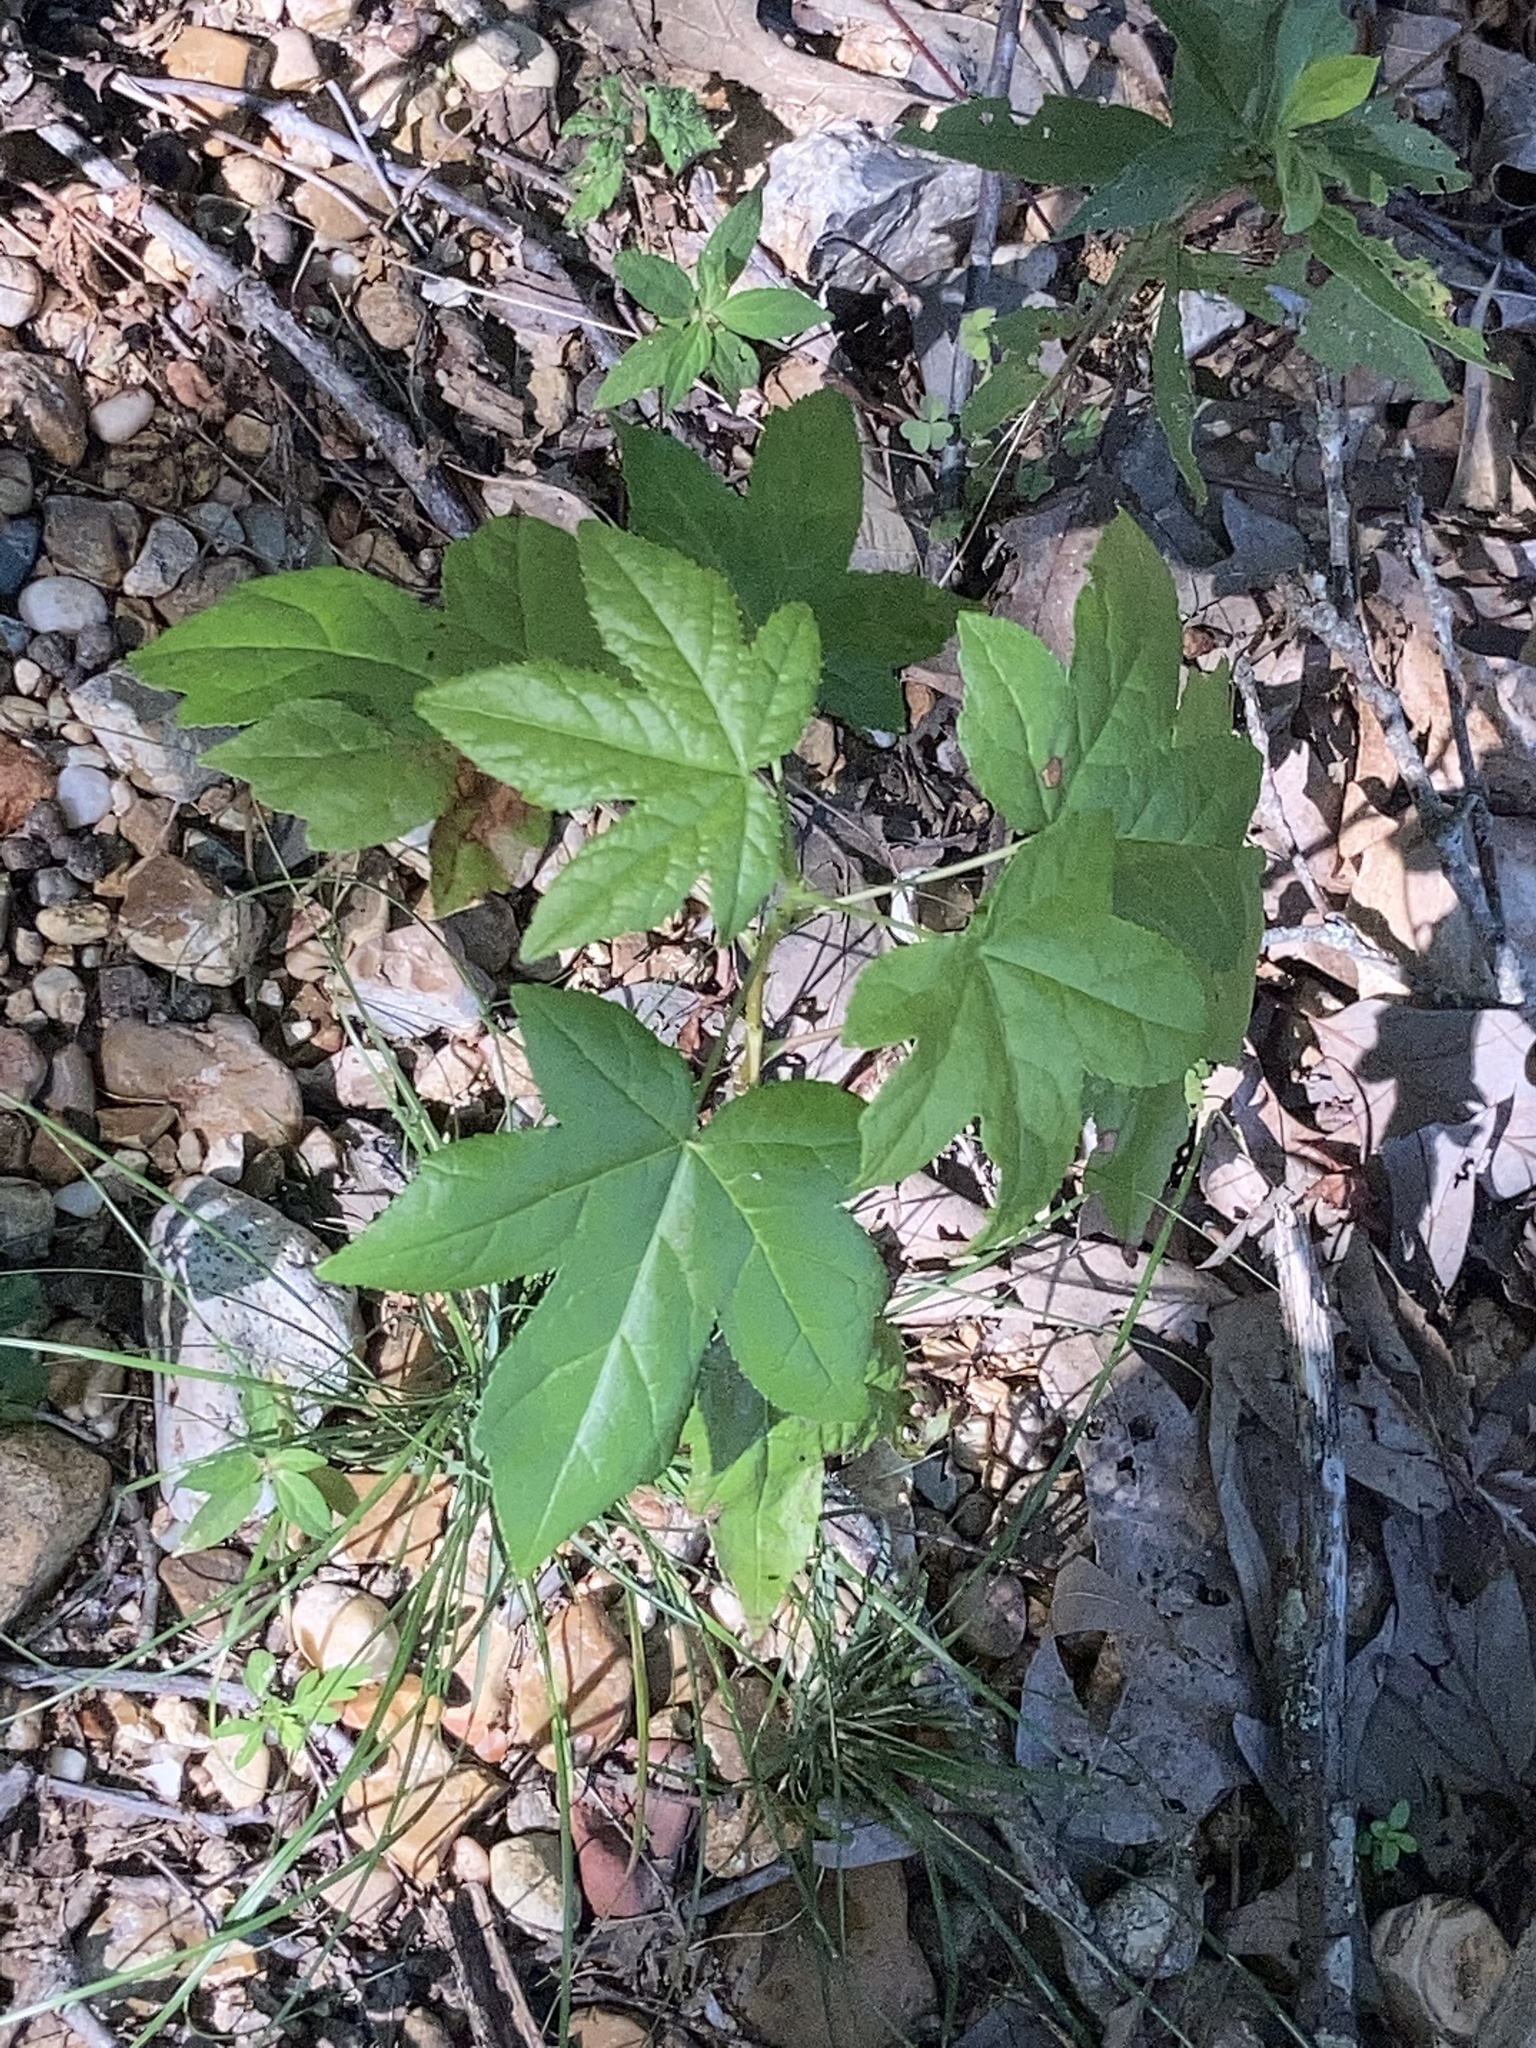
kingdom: Plantae
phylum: Tracheophyta
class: Magnoliopsida
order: Saxifragales
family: Altingiaceae
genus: Liquidambar
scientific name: Liquidambar styraciflua
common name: Sweet gum
